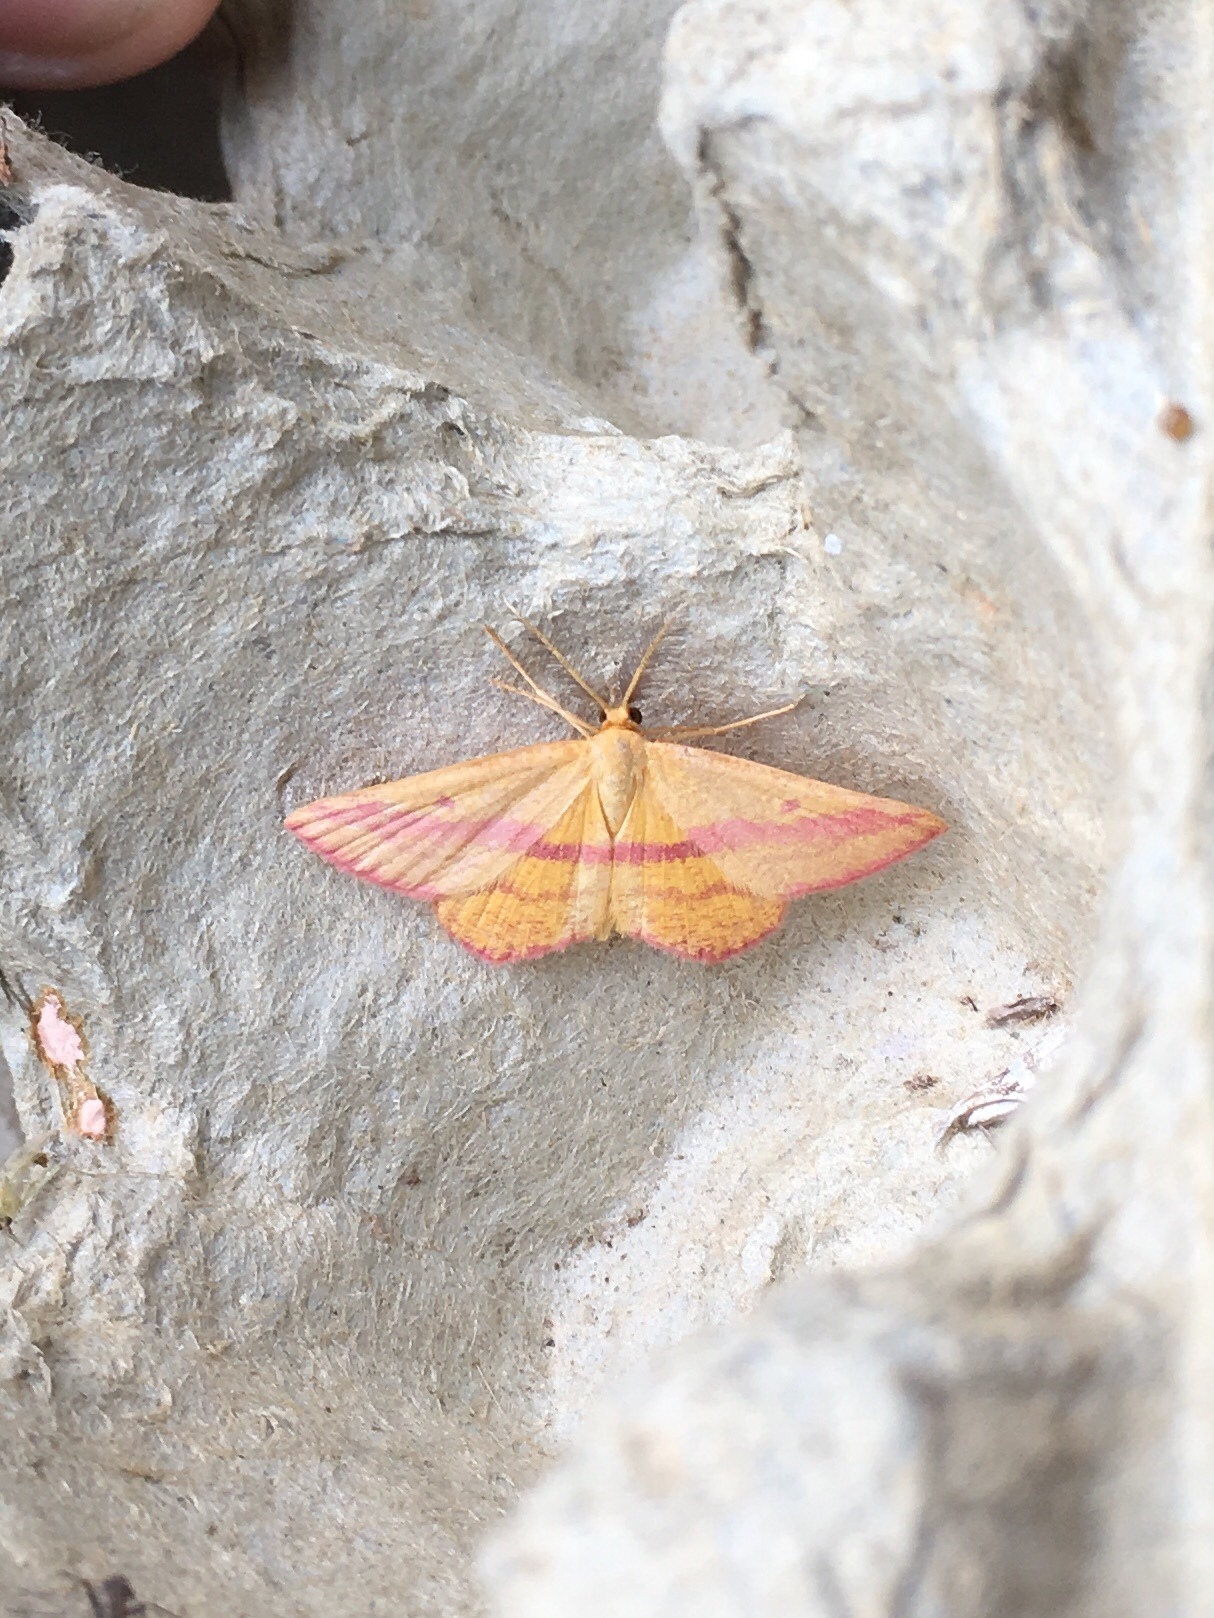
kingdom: Animalia
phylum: Arthropoda
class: Insecta
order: Lepidoptera
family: Geometridae
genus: Haematopis
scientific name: Haematopis grataria
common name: Chickweed geometer
